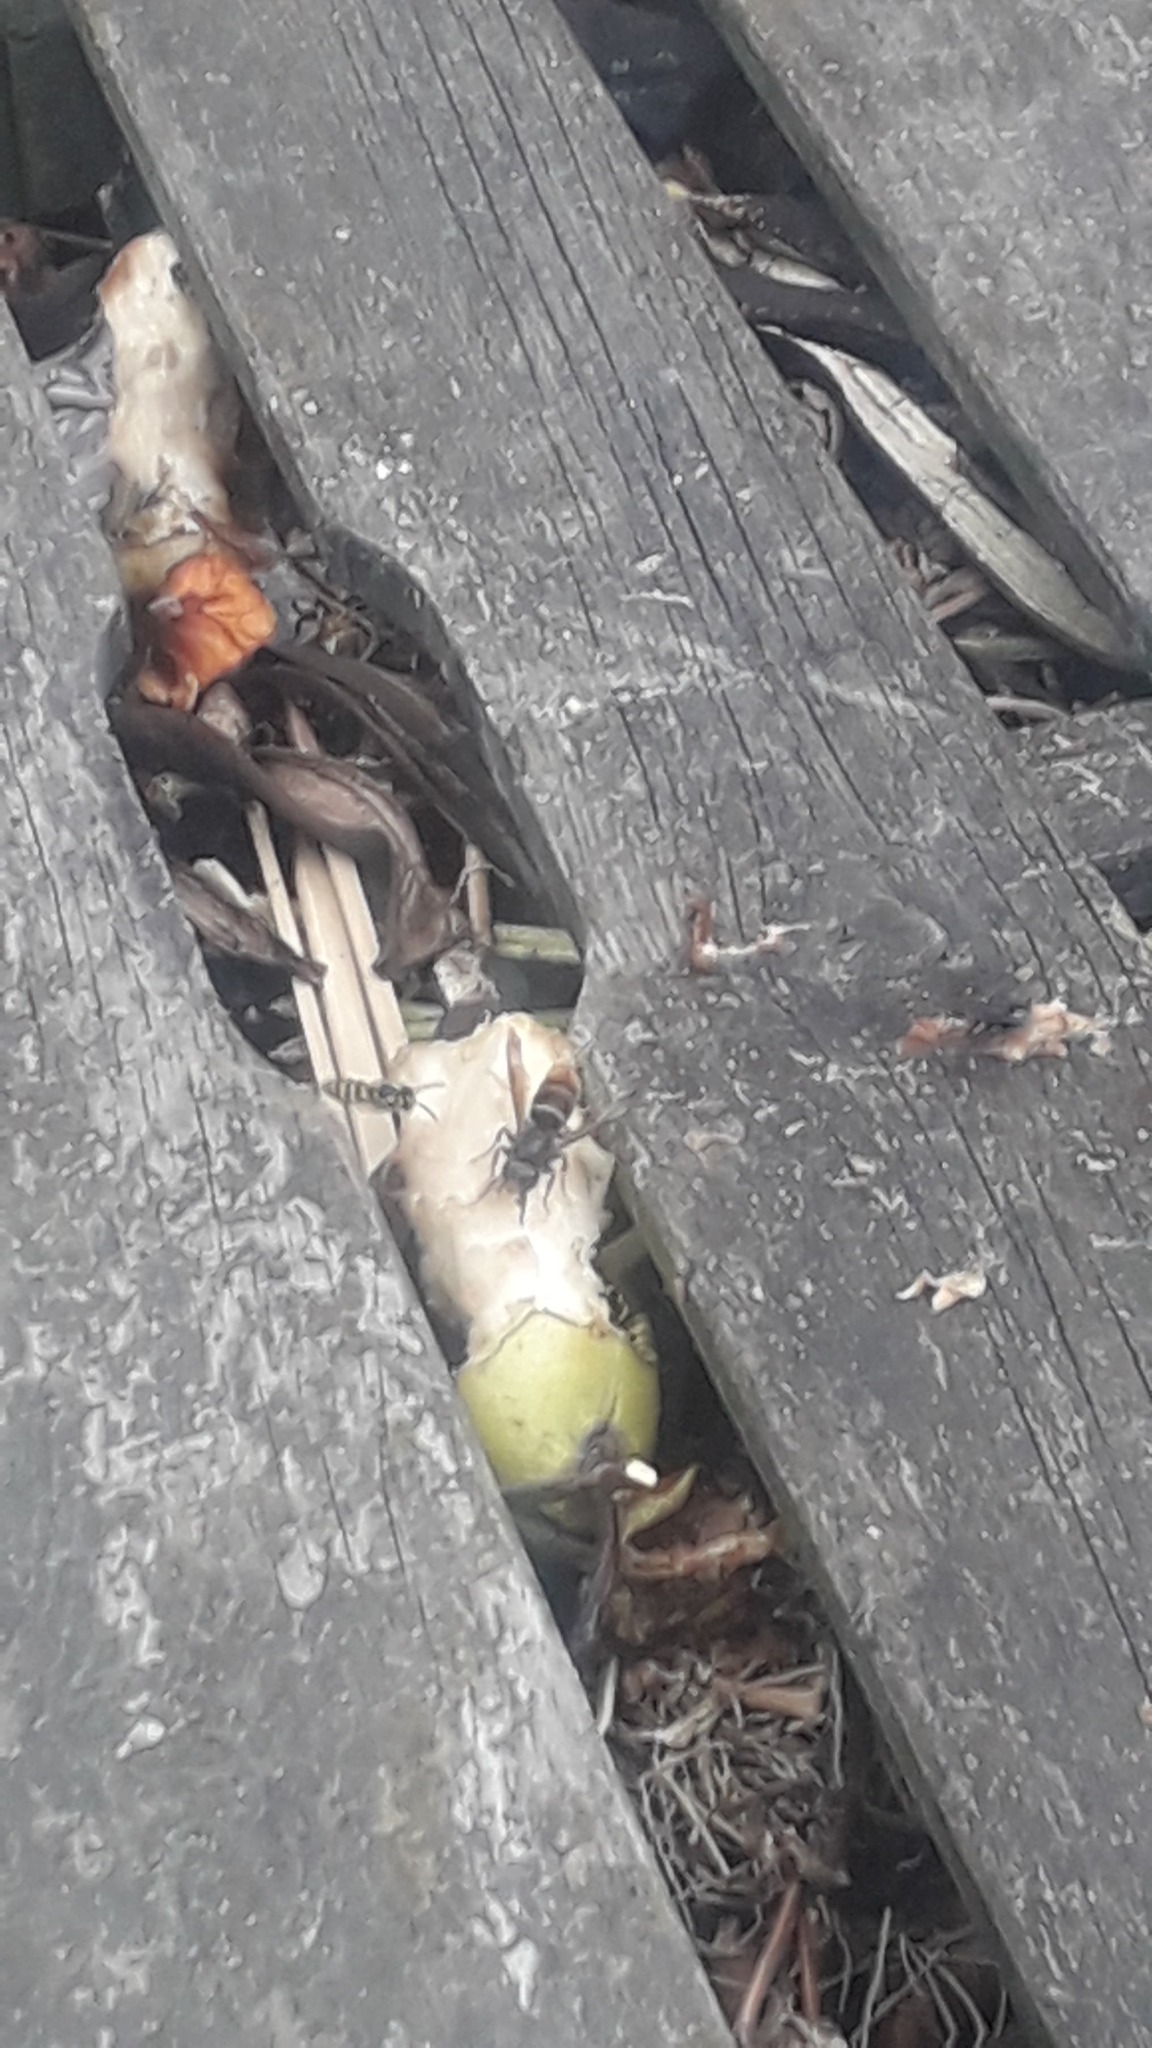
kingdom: Animalia
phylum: Arthropoda
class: Insecta
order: Hymenoptera
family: Vespidae
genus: Vespa
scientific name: Vespa velutina
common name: Asian hornet
